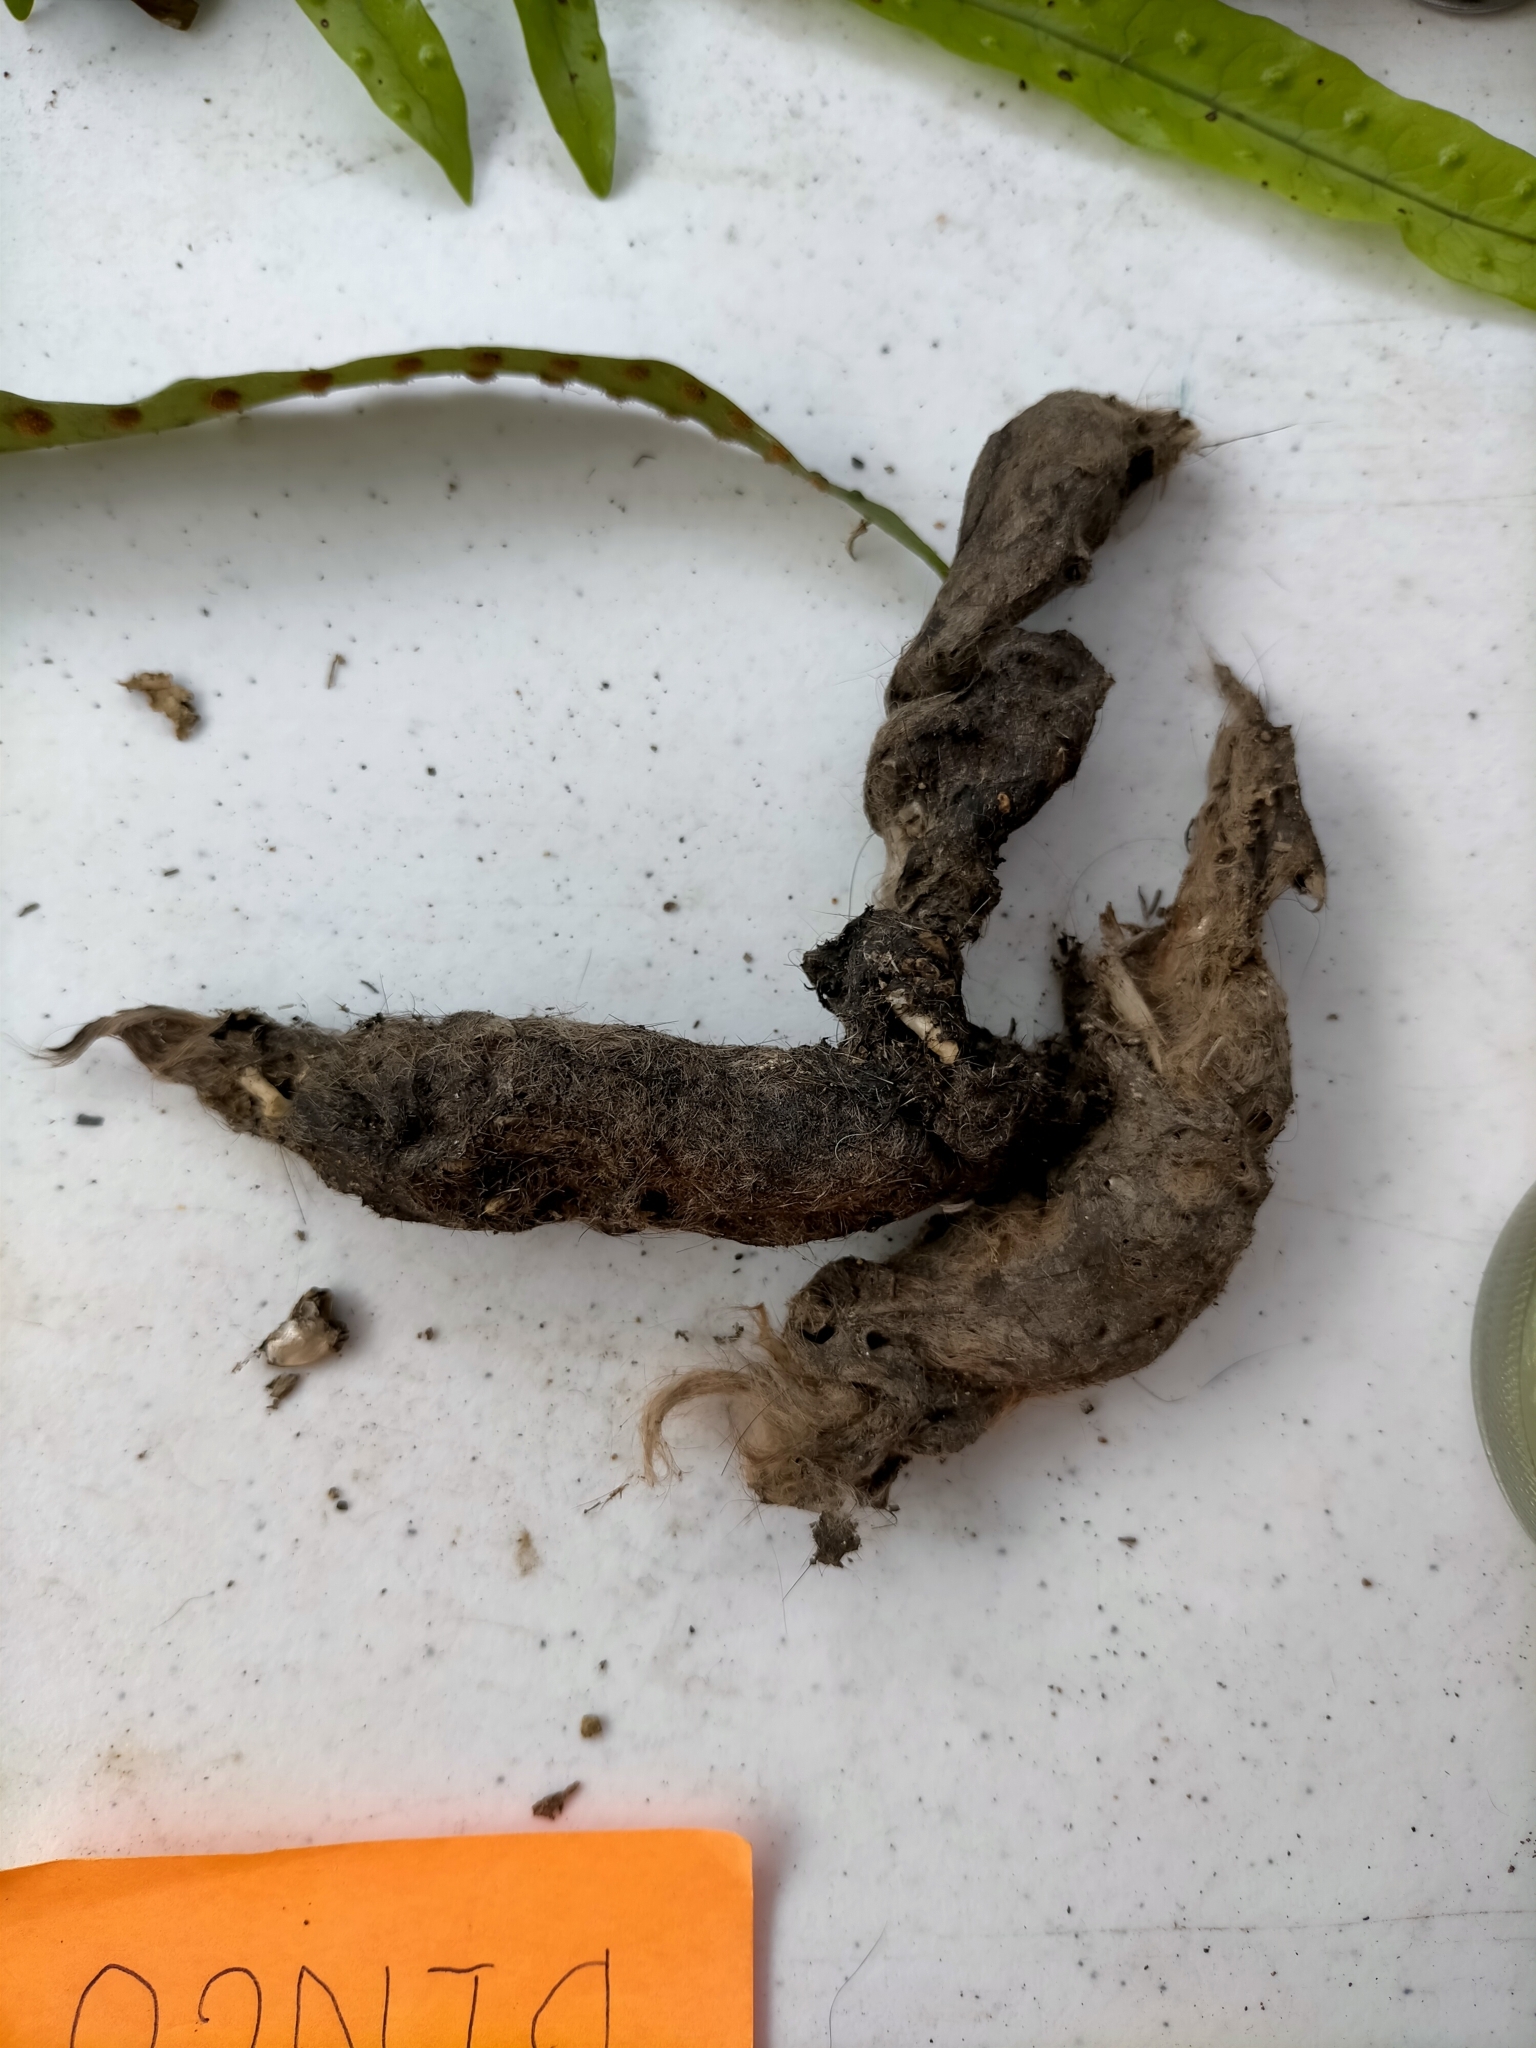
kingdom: Animalia
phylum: Chordata
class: Mammalia
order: Dasyuromorphia
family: Dasyuridae
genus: Sarcophilus
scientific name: Sarcophilus harrisii
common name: Tasmanian devil
